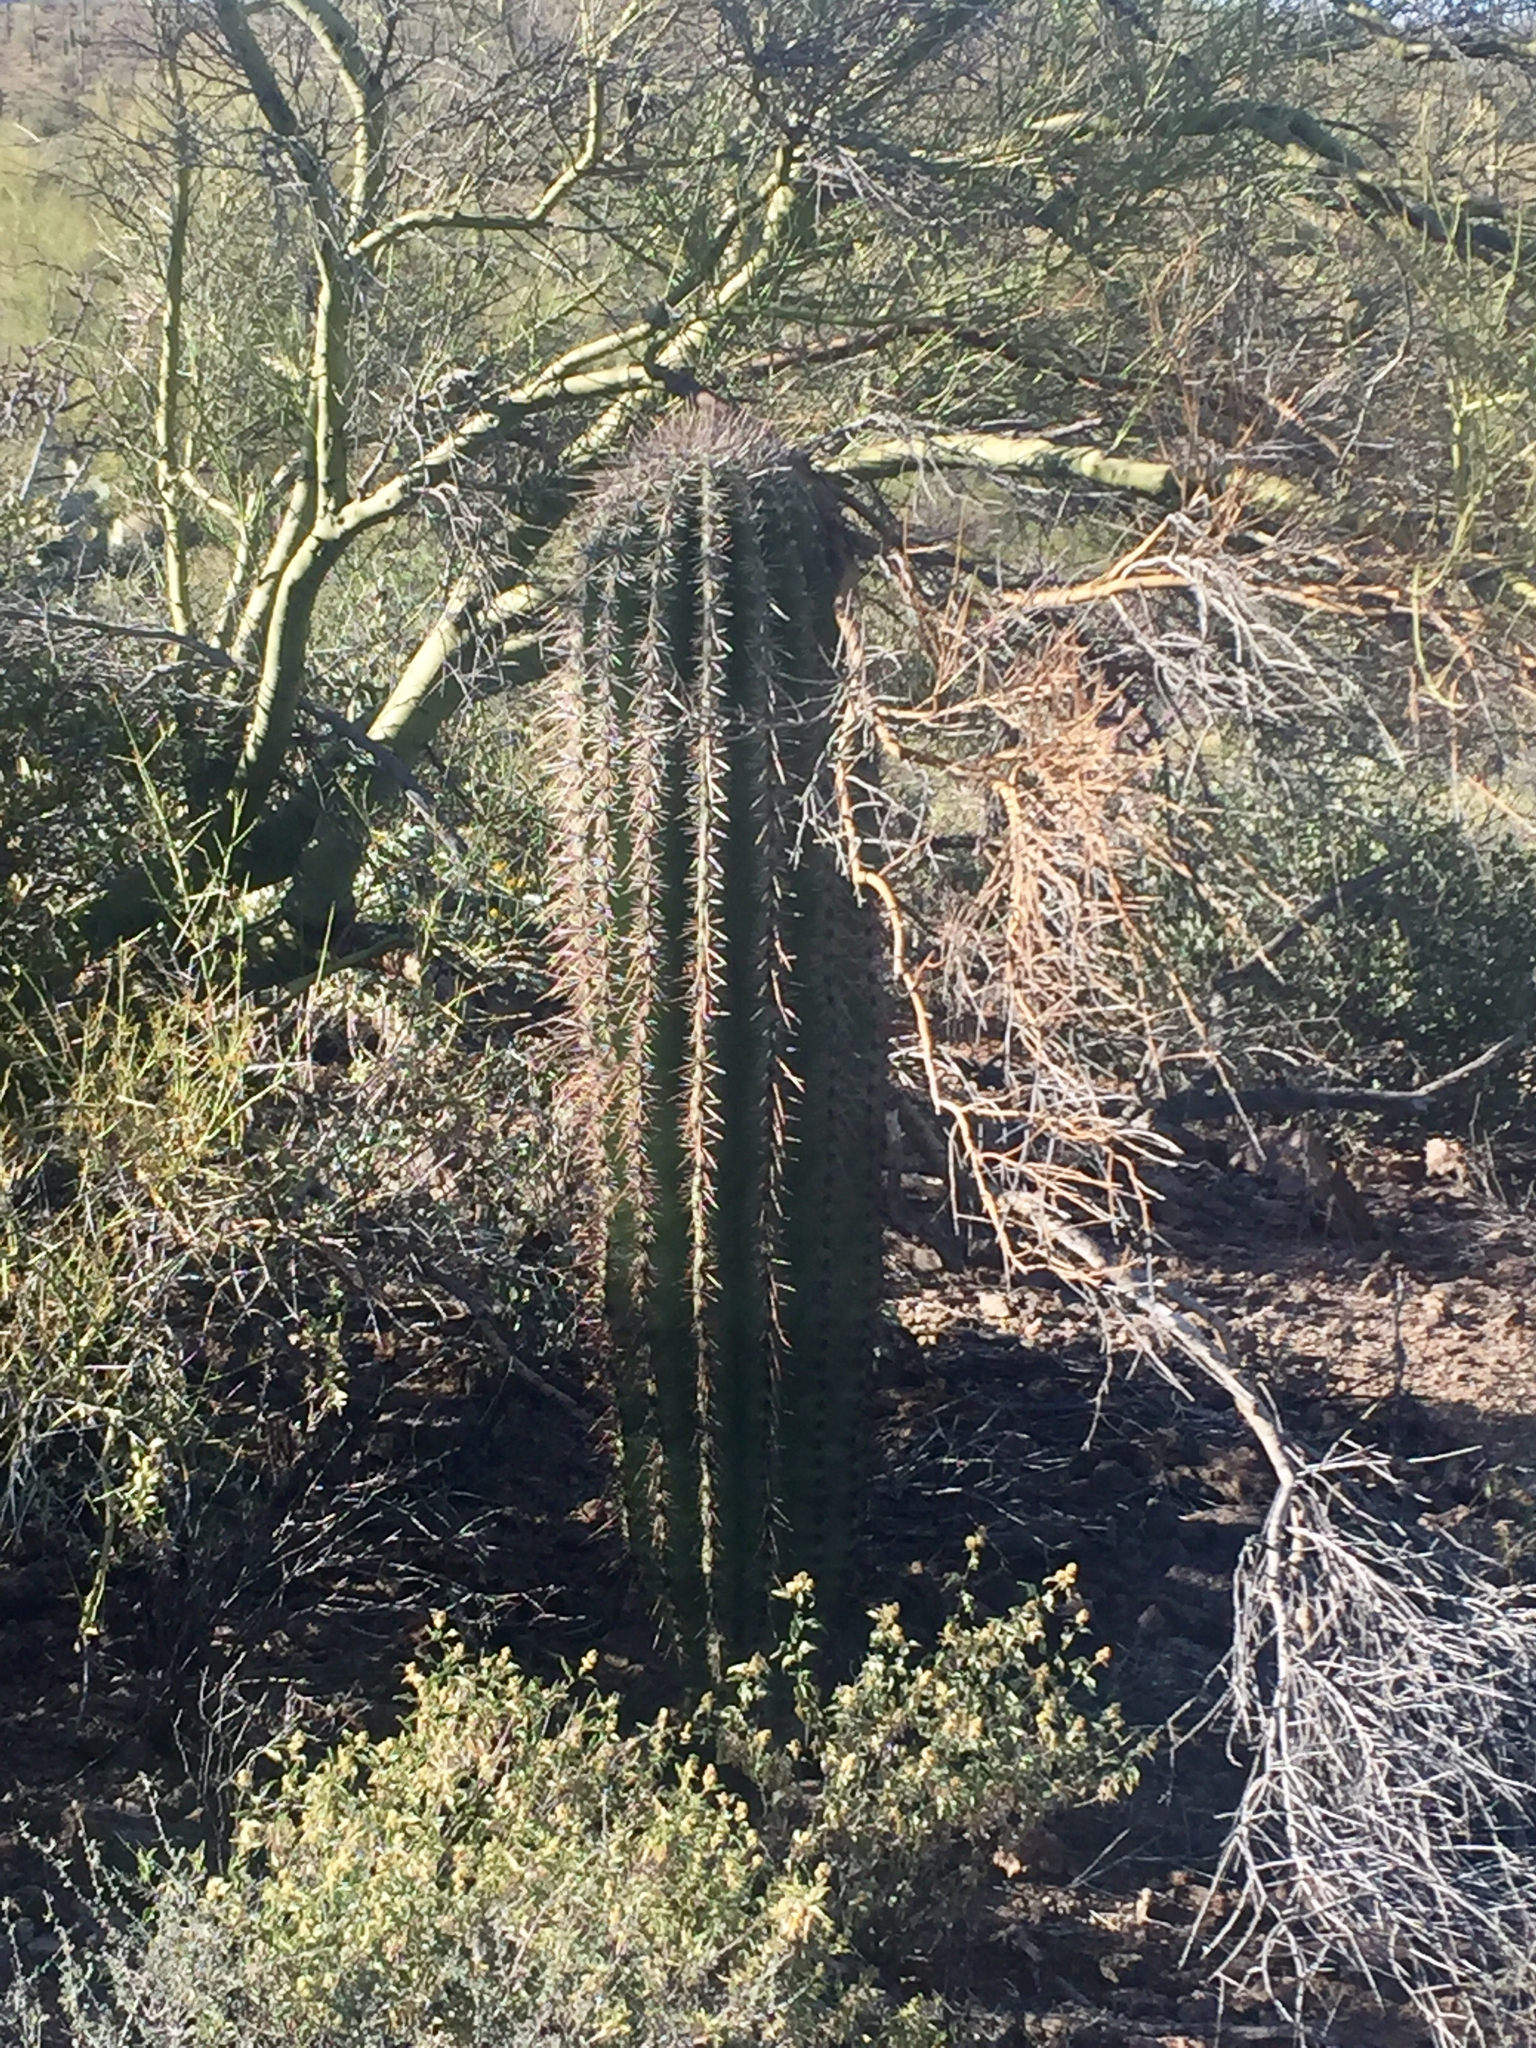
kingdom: Plantae
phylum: Tracheophyta
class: Magnoliopsida
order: Caryophyllales
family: Cactaceae
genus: Carnegiea
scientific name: Carnegiea gigantea
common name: Saguaro
